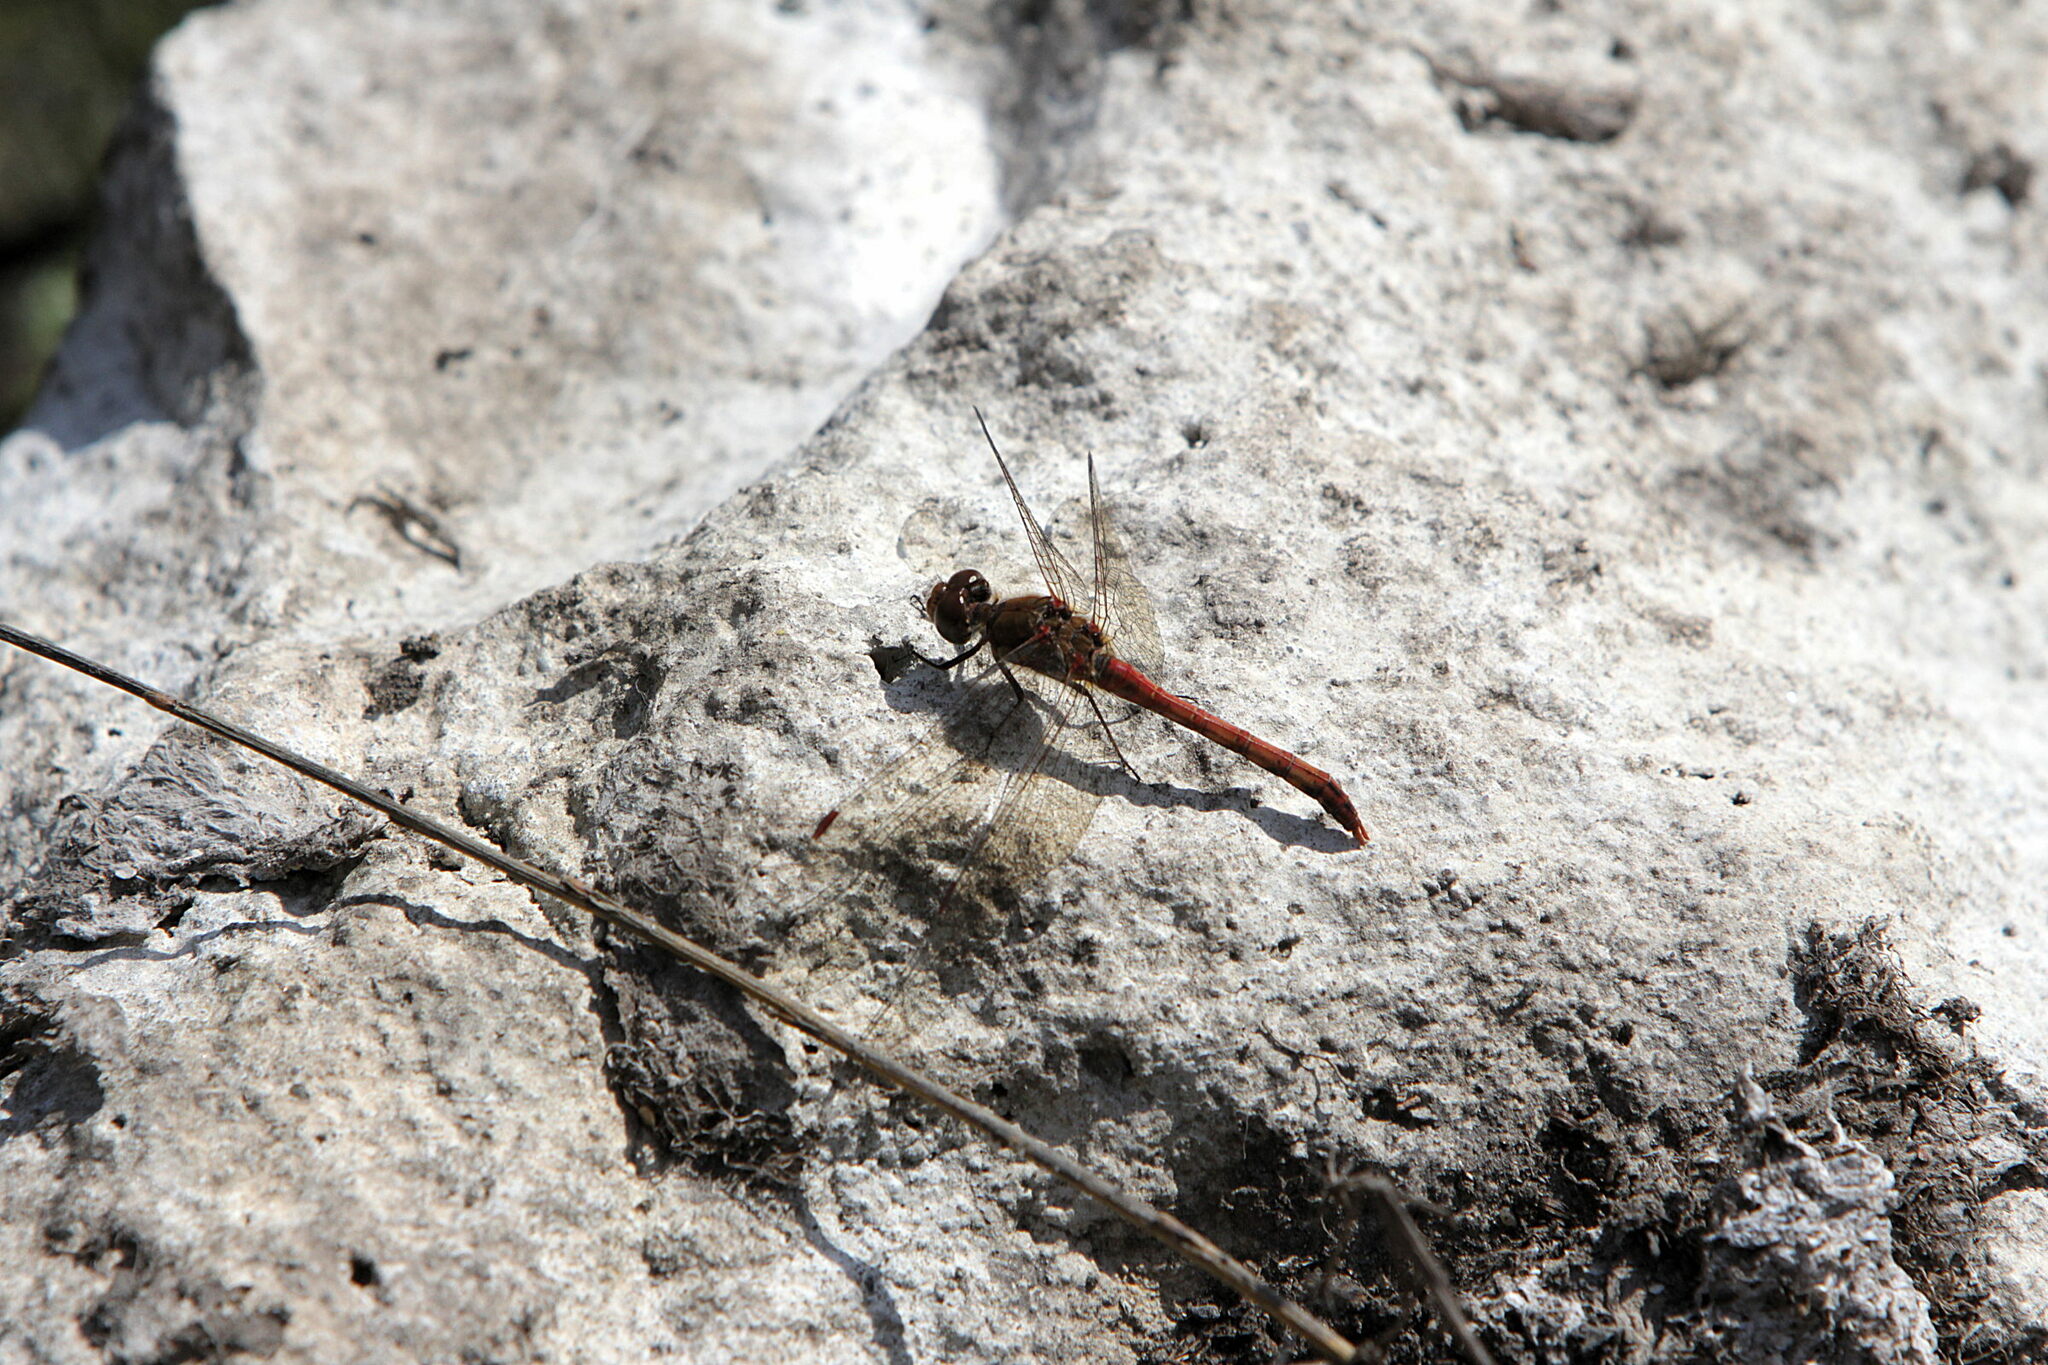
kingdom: Animalia
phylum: Arthropoda
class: Insecta
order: Odonata
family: Libellulidae
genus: Sympetrum
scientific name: Sympetrum sanguineum
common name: Ruddy darter
